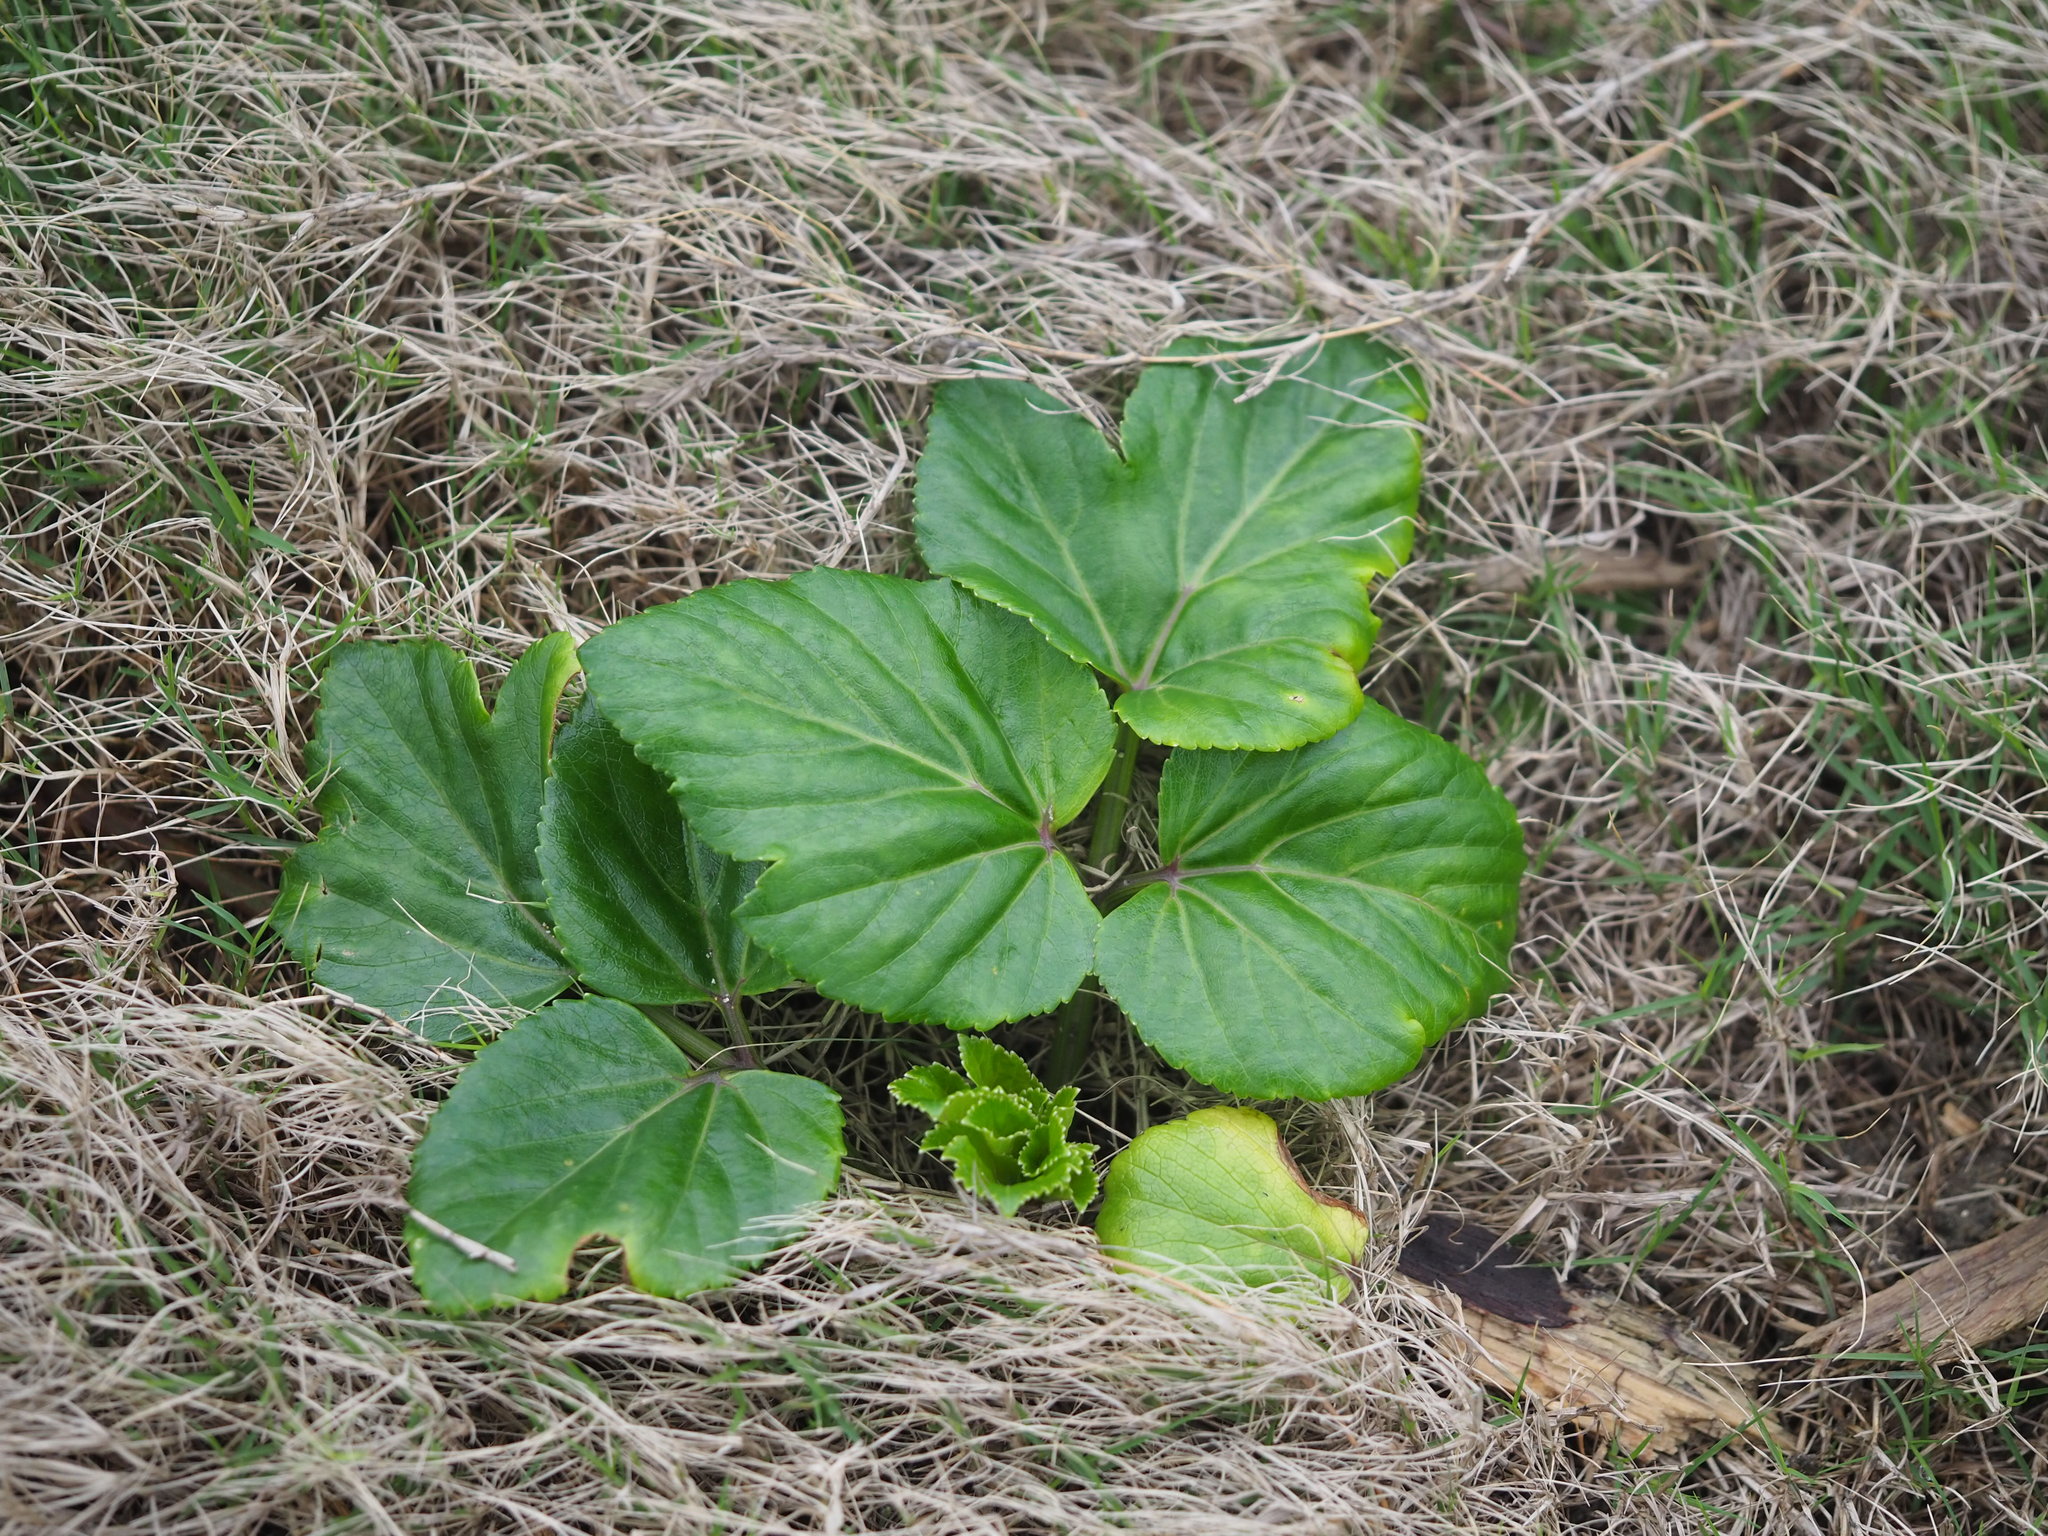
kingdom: Plantae
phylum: Tracheophyta
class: Magnoliopsida
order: Apiales
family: Apiaceae
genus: Angelica
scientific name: Angelica hirsutiflora
